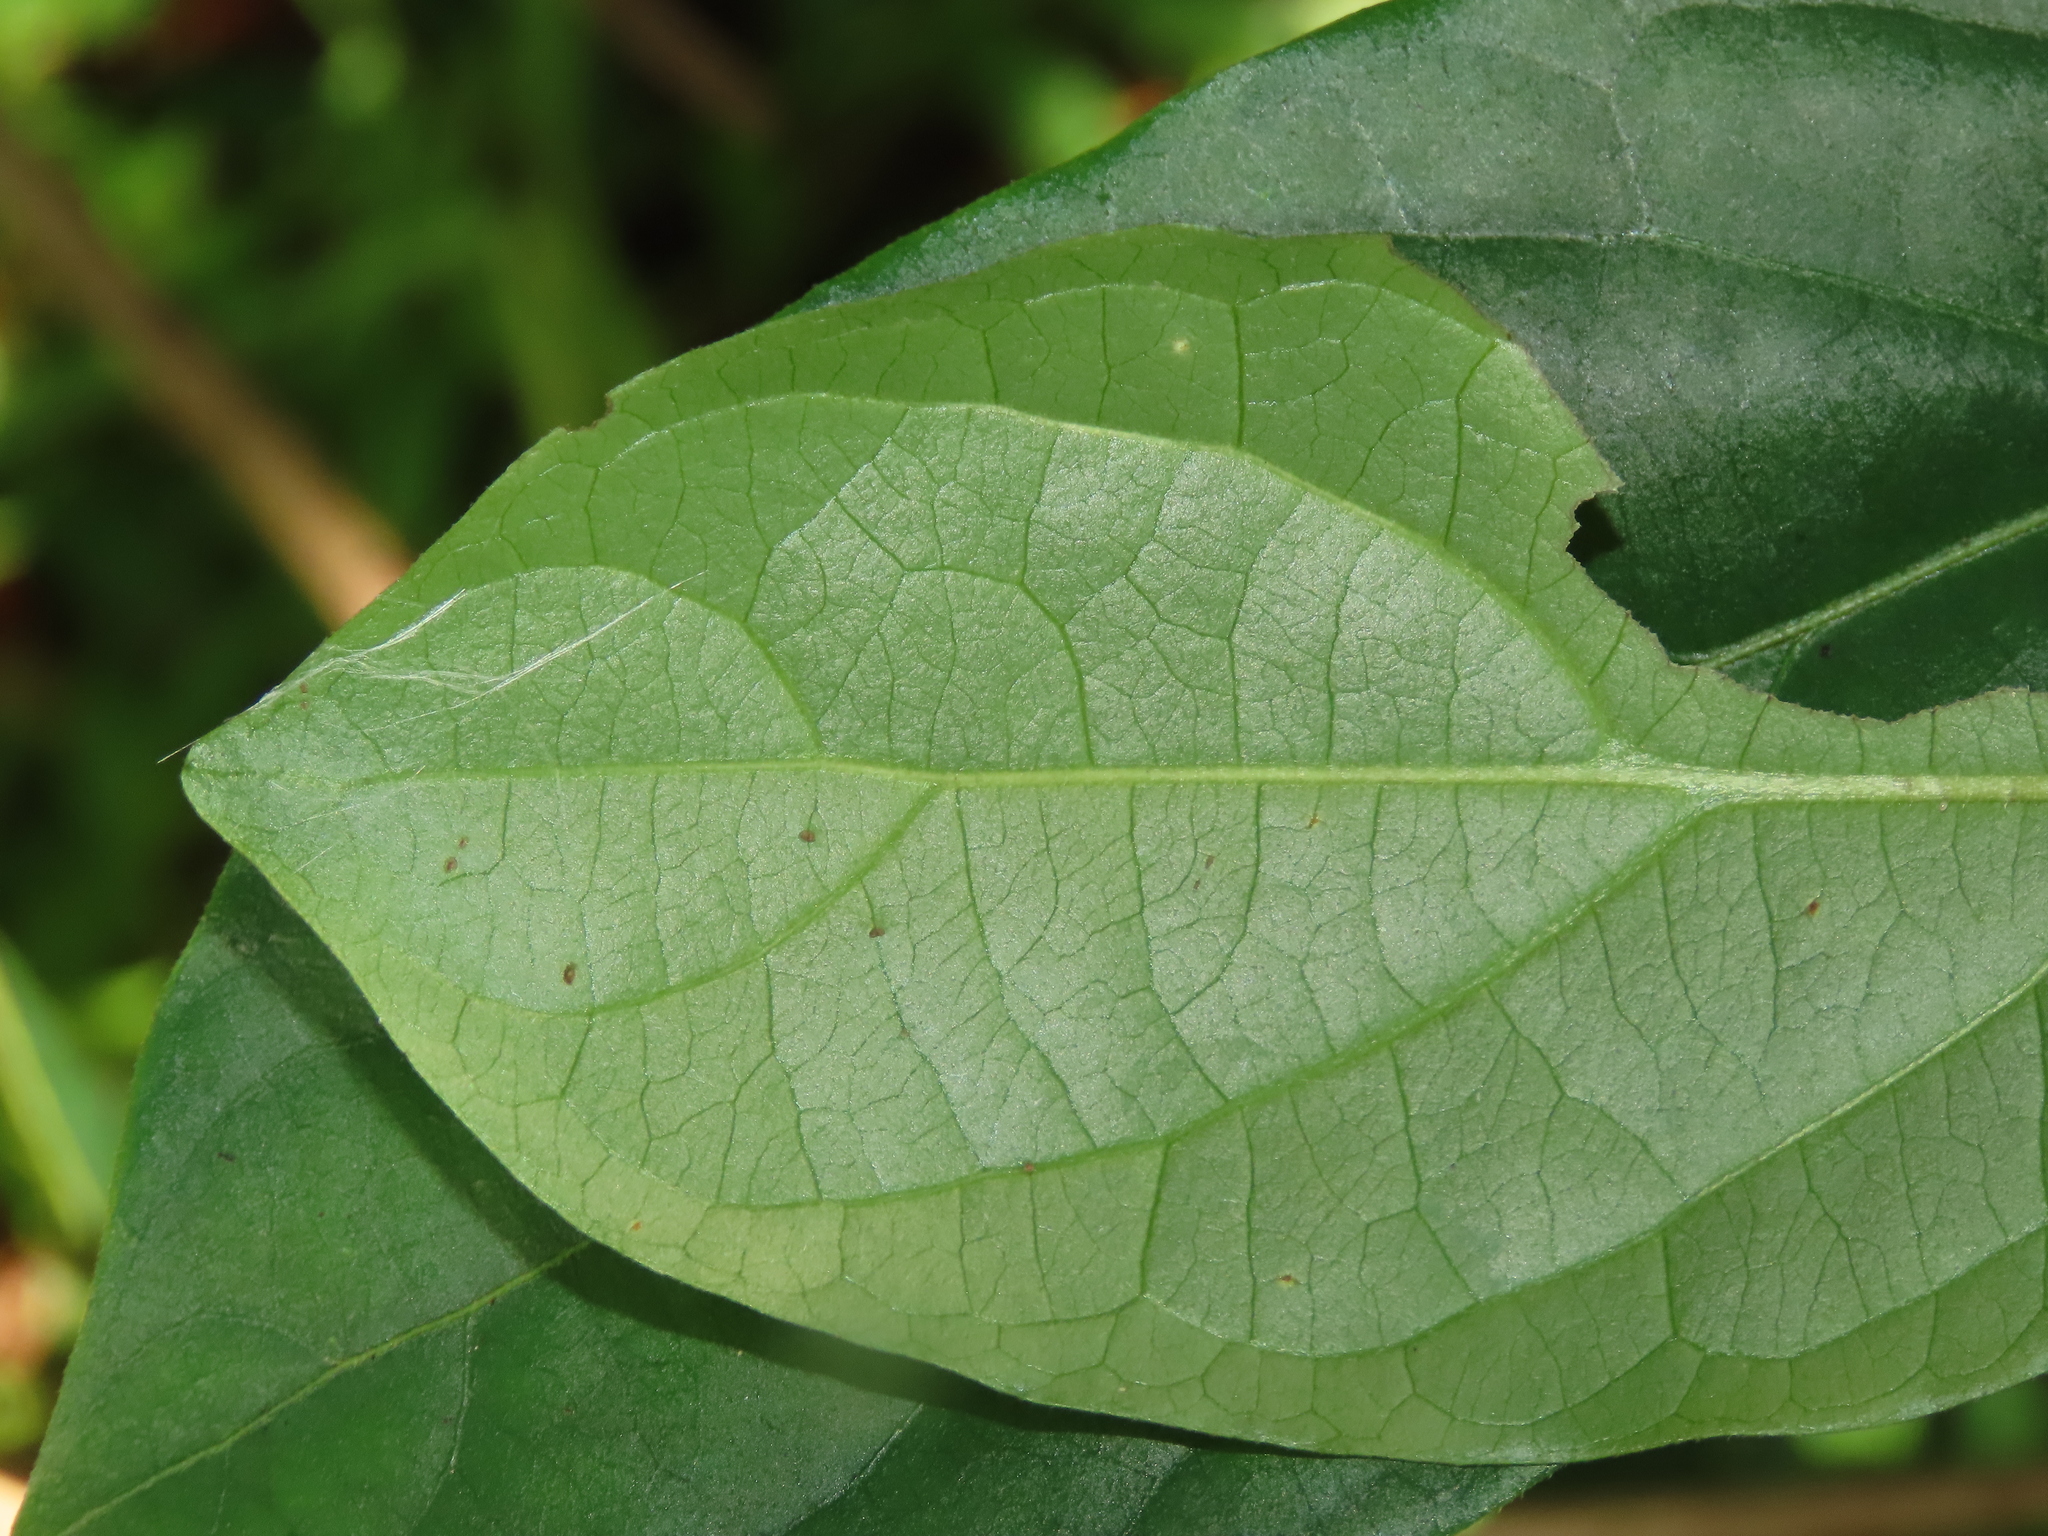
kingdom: Plantae
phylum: Tracheophyta
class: Magnoliopsida
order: Malpighiales
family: Phyllanthaceae
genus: Glochidion
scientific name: Glochidion philippicum
